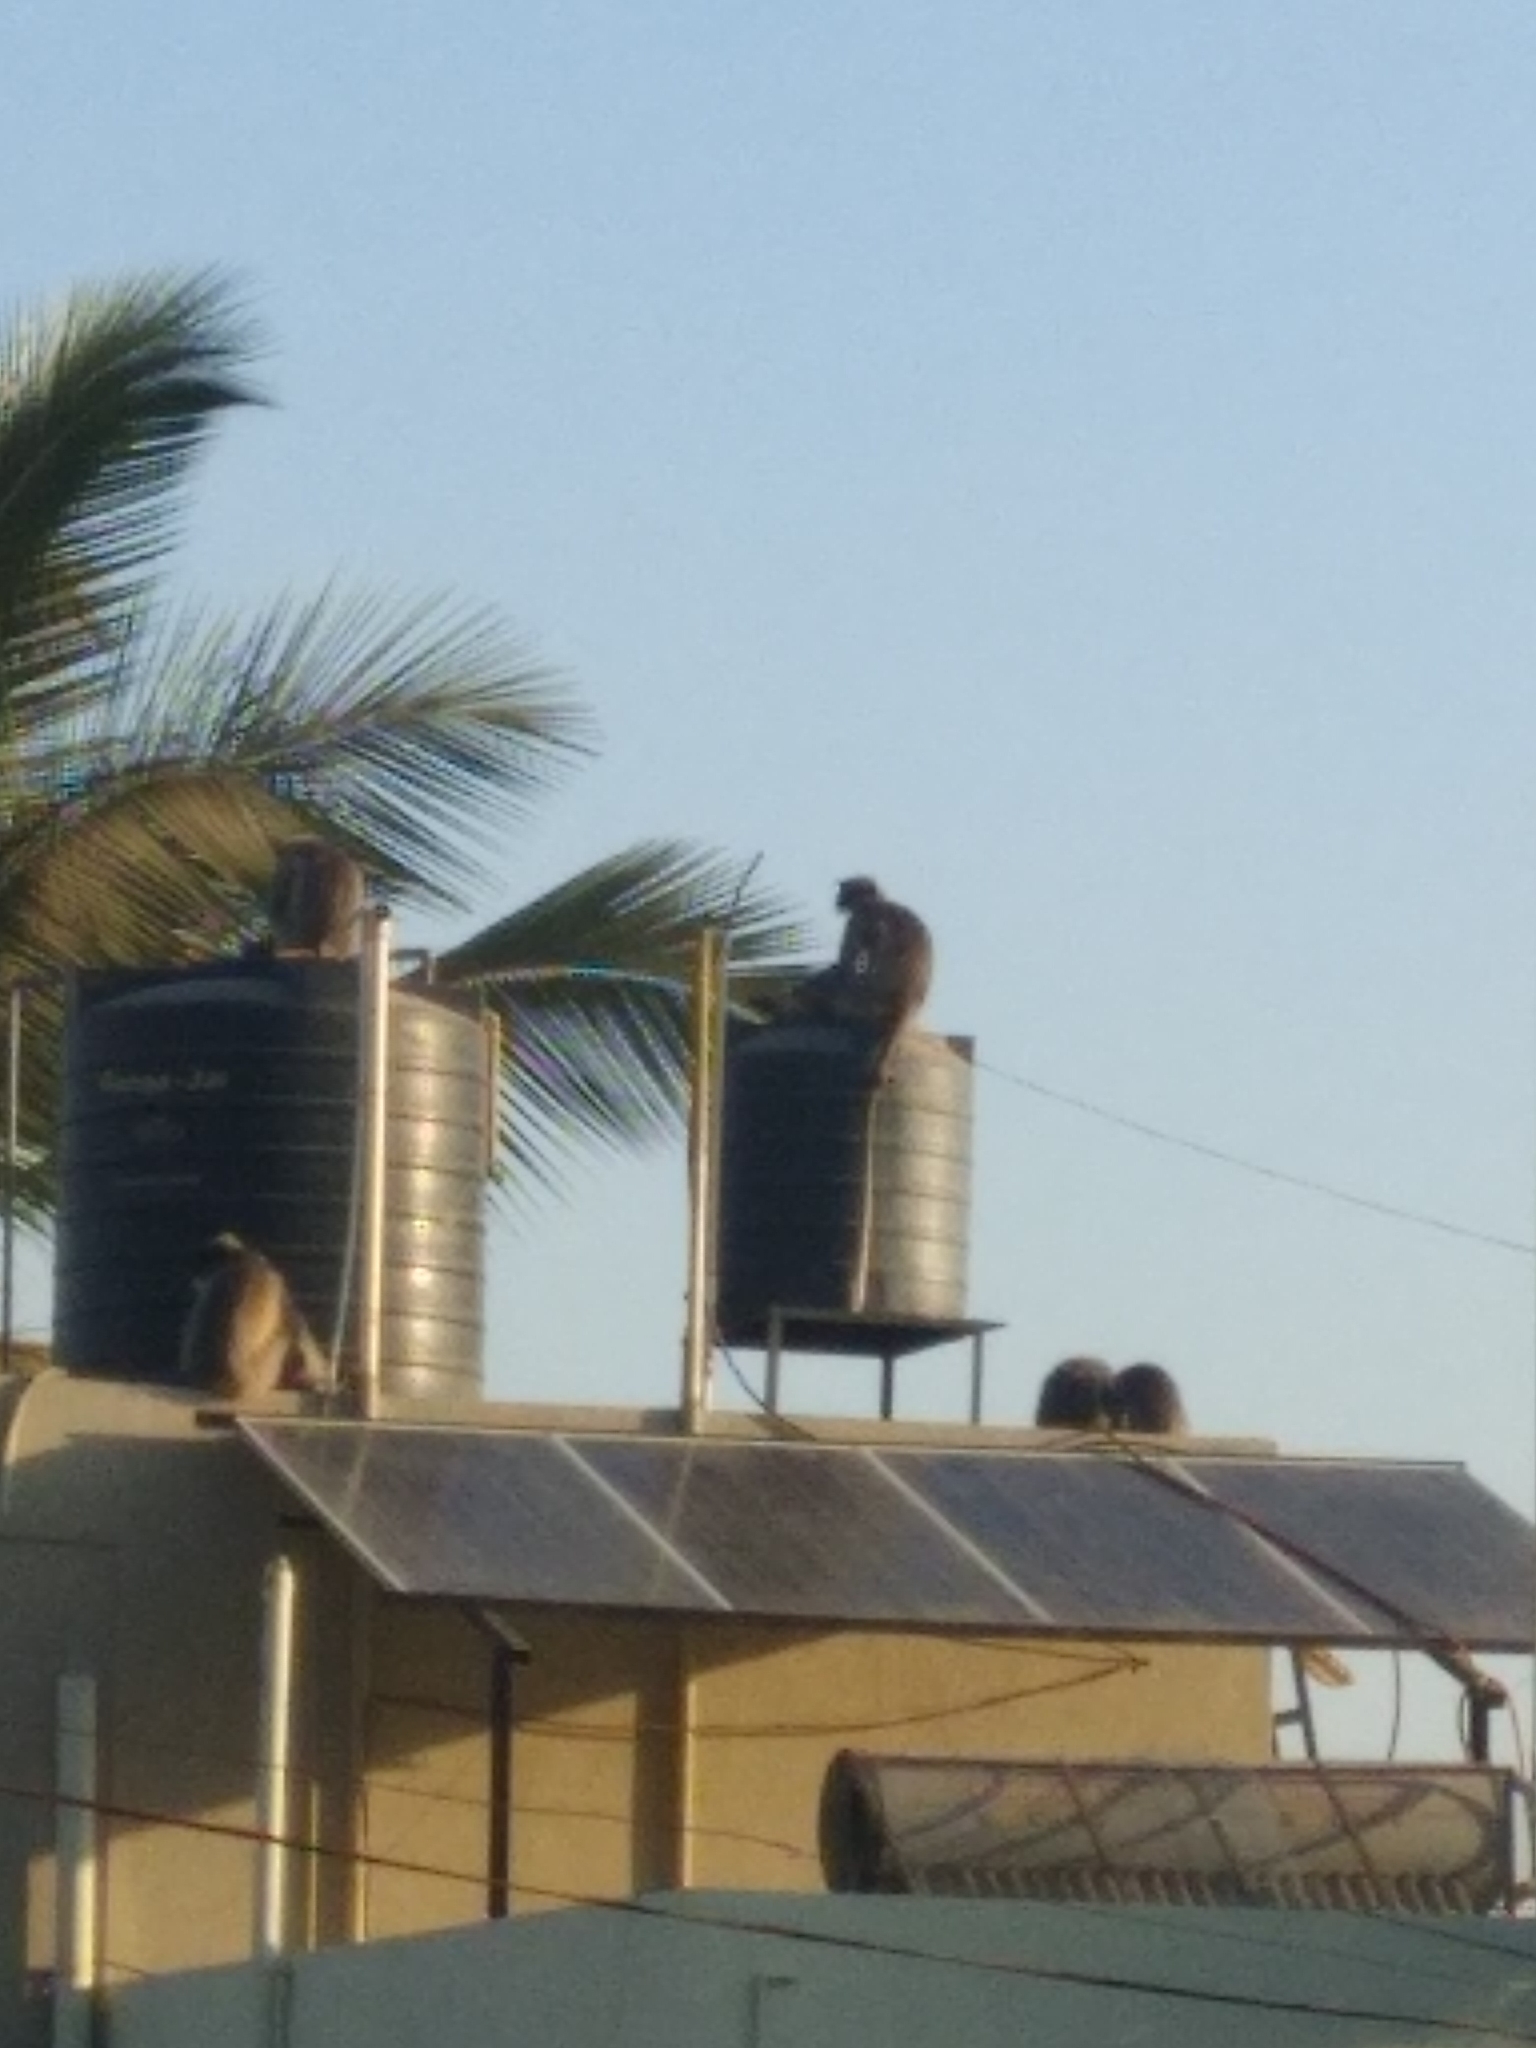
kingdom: Animalia
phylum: Chordata
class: Mammalia
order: Primates
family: Cercopithecidae
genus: Semnopithecus
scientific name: Semnopithecus hypoleucos
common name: Black-footed gray langur
